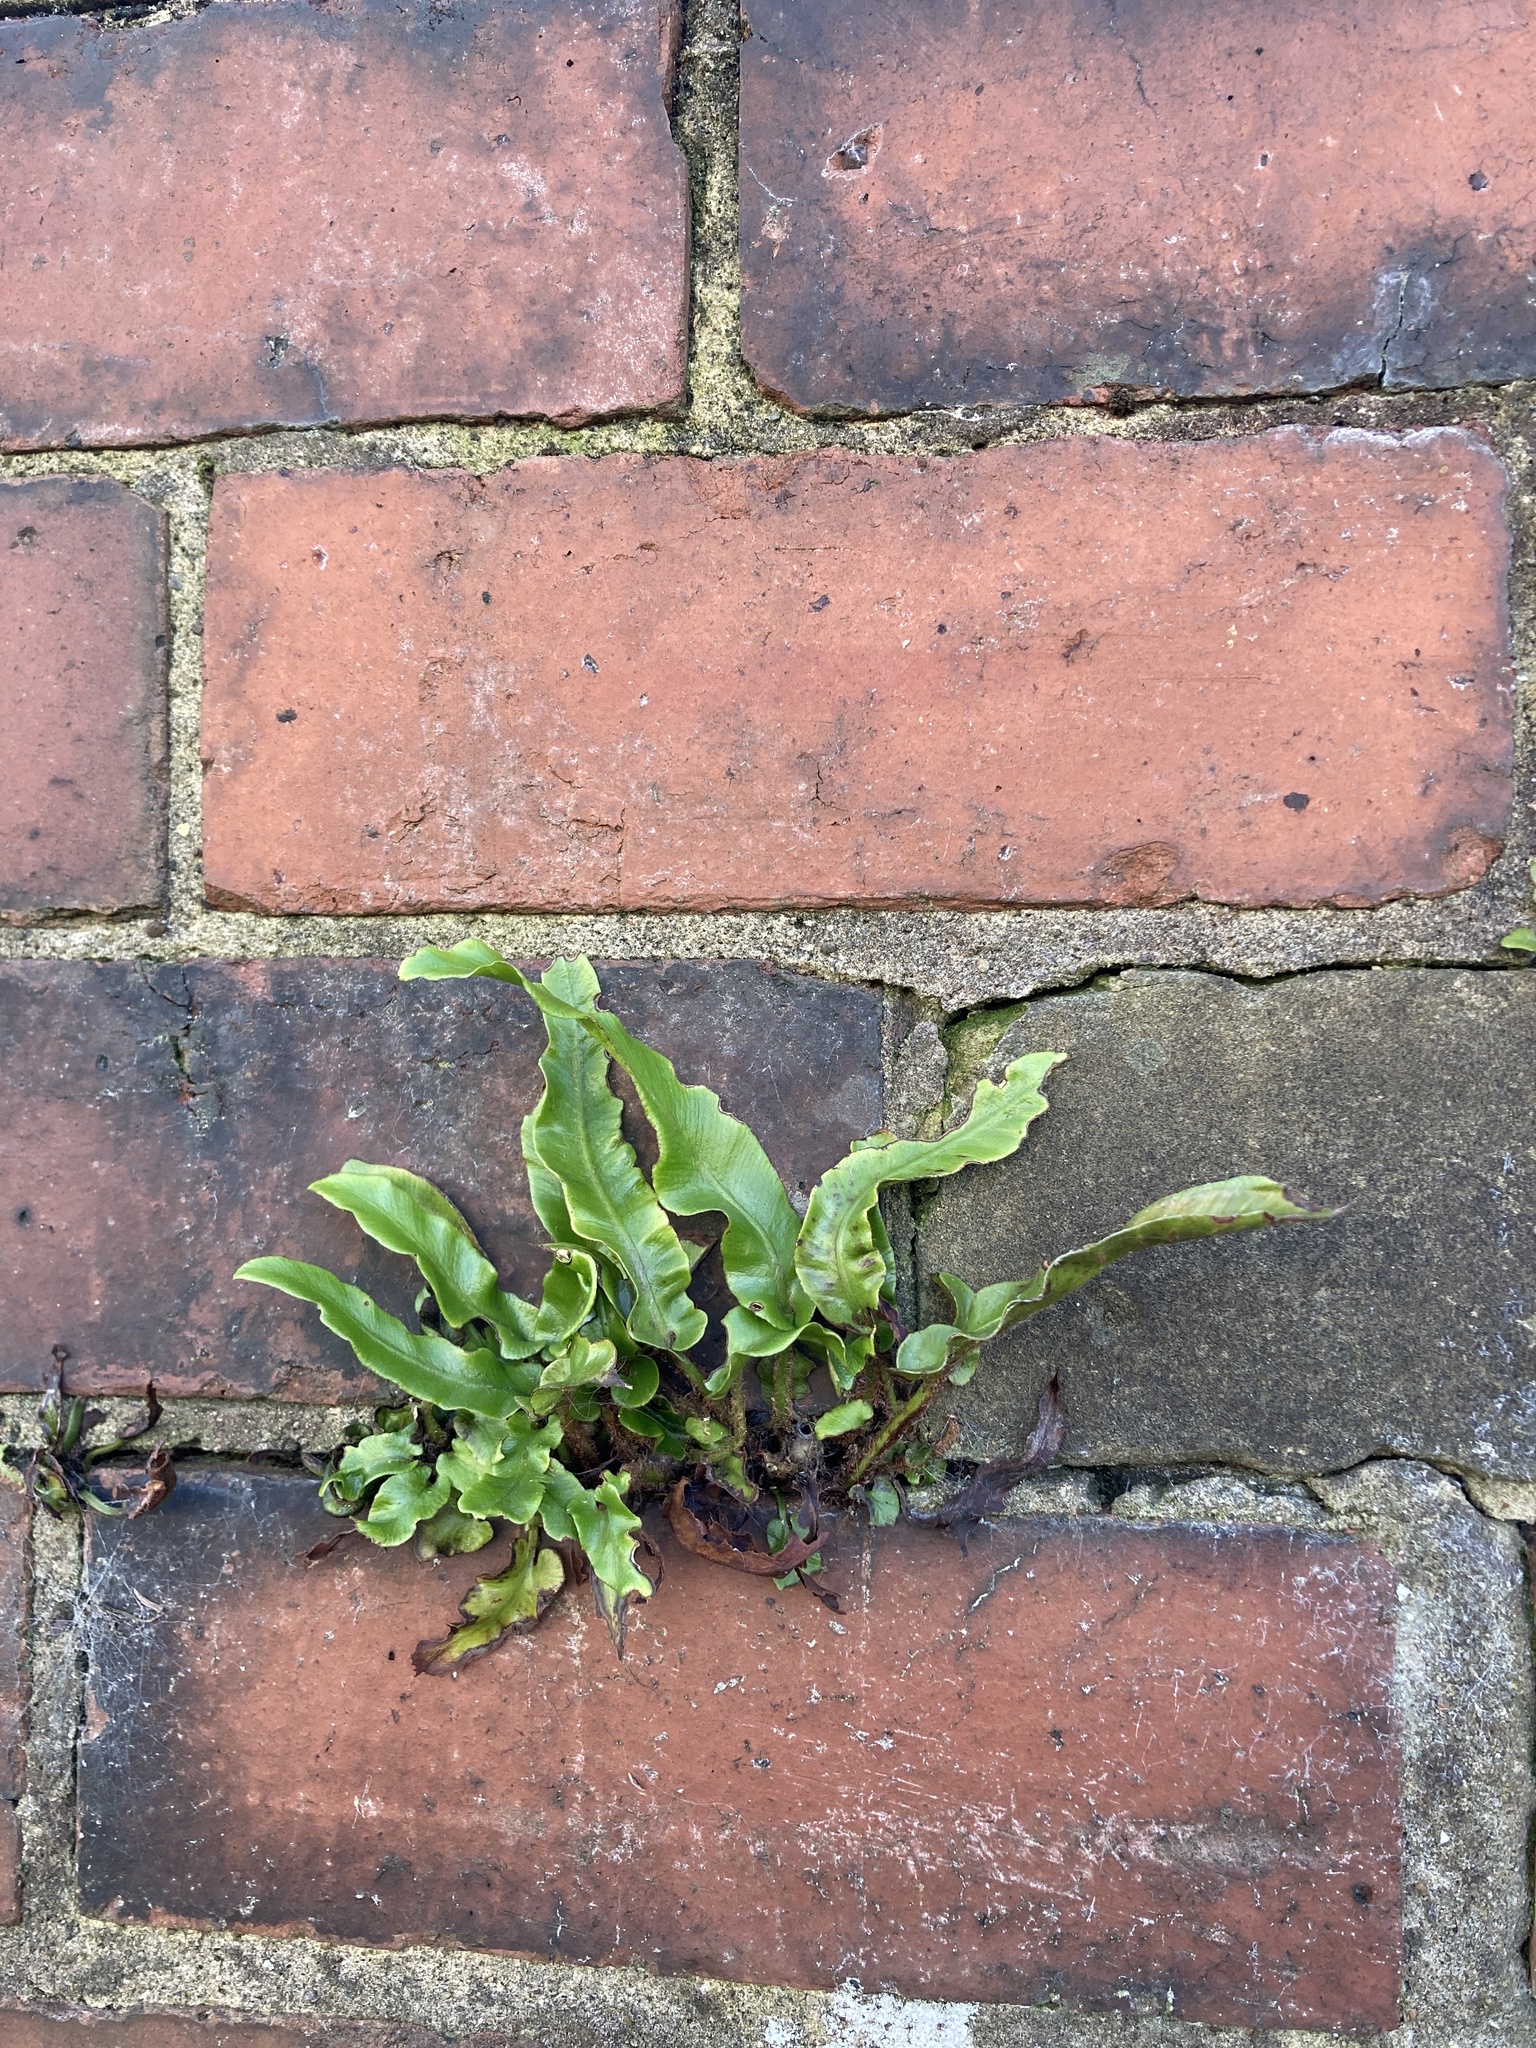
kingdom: Plantae
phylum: Tracheophyta
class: Polypodiopsida
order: Polypodiales
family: Aspleniaceae
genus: Asplenium
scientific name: Asplenium scolopendrium
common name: Hart's-tongue fern
